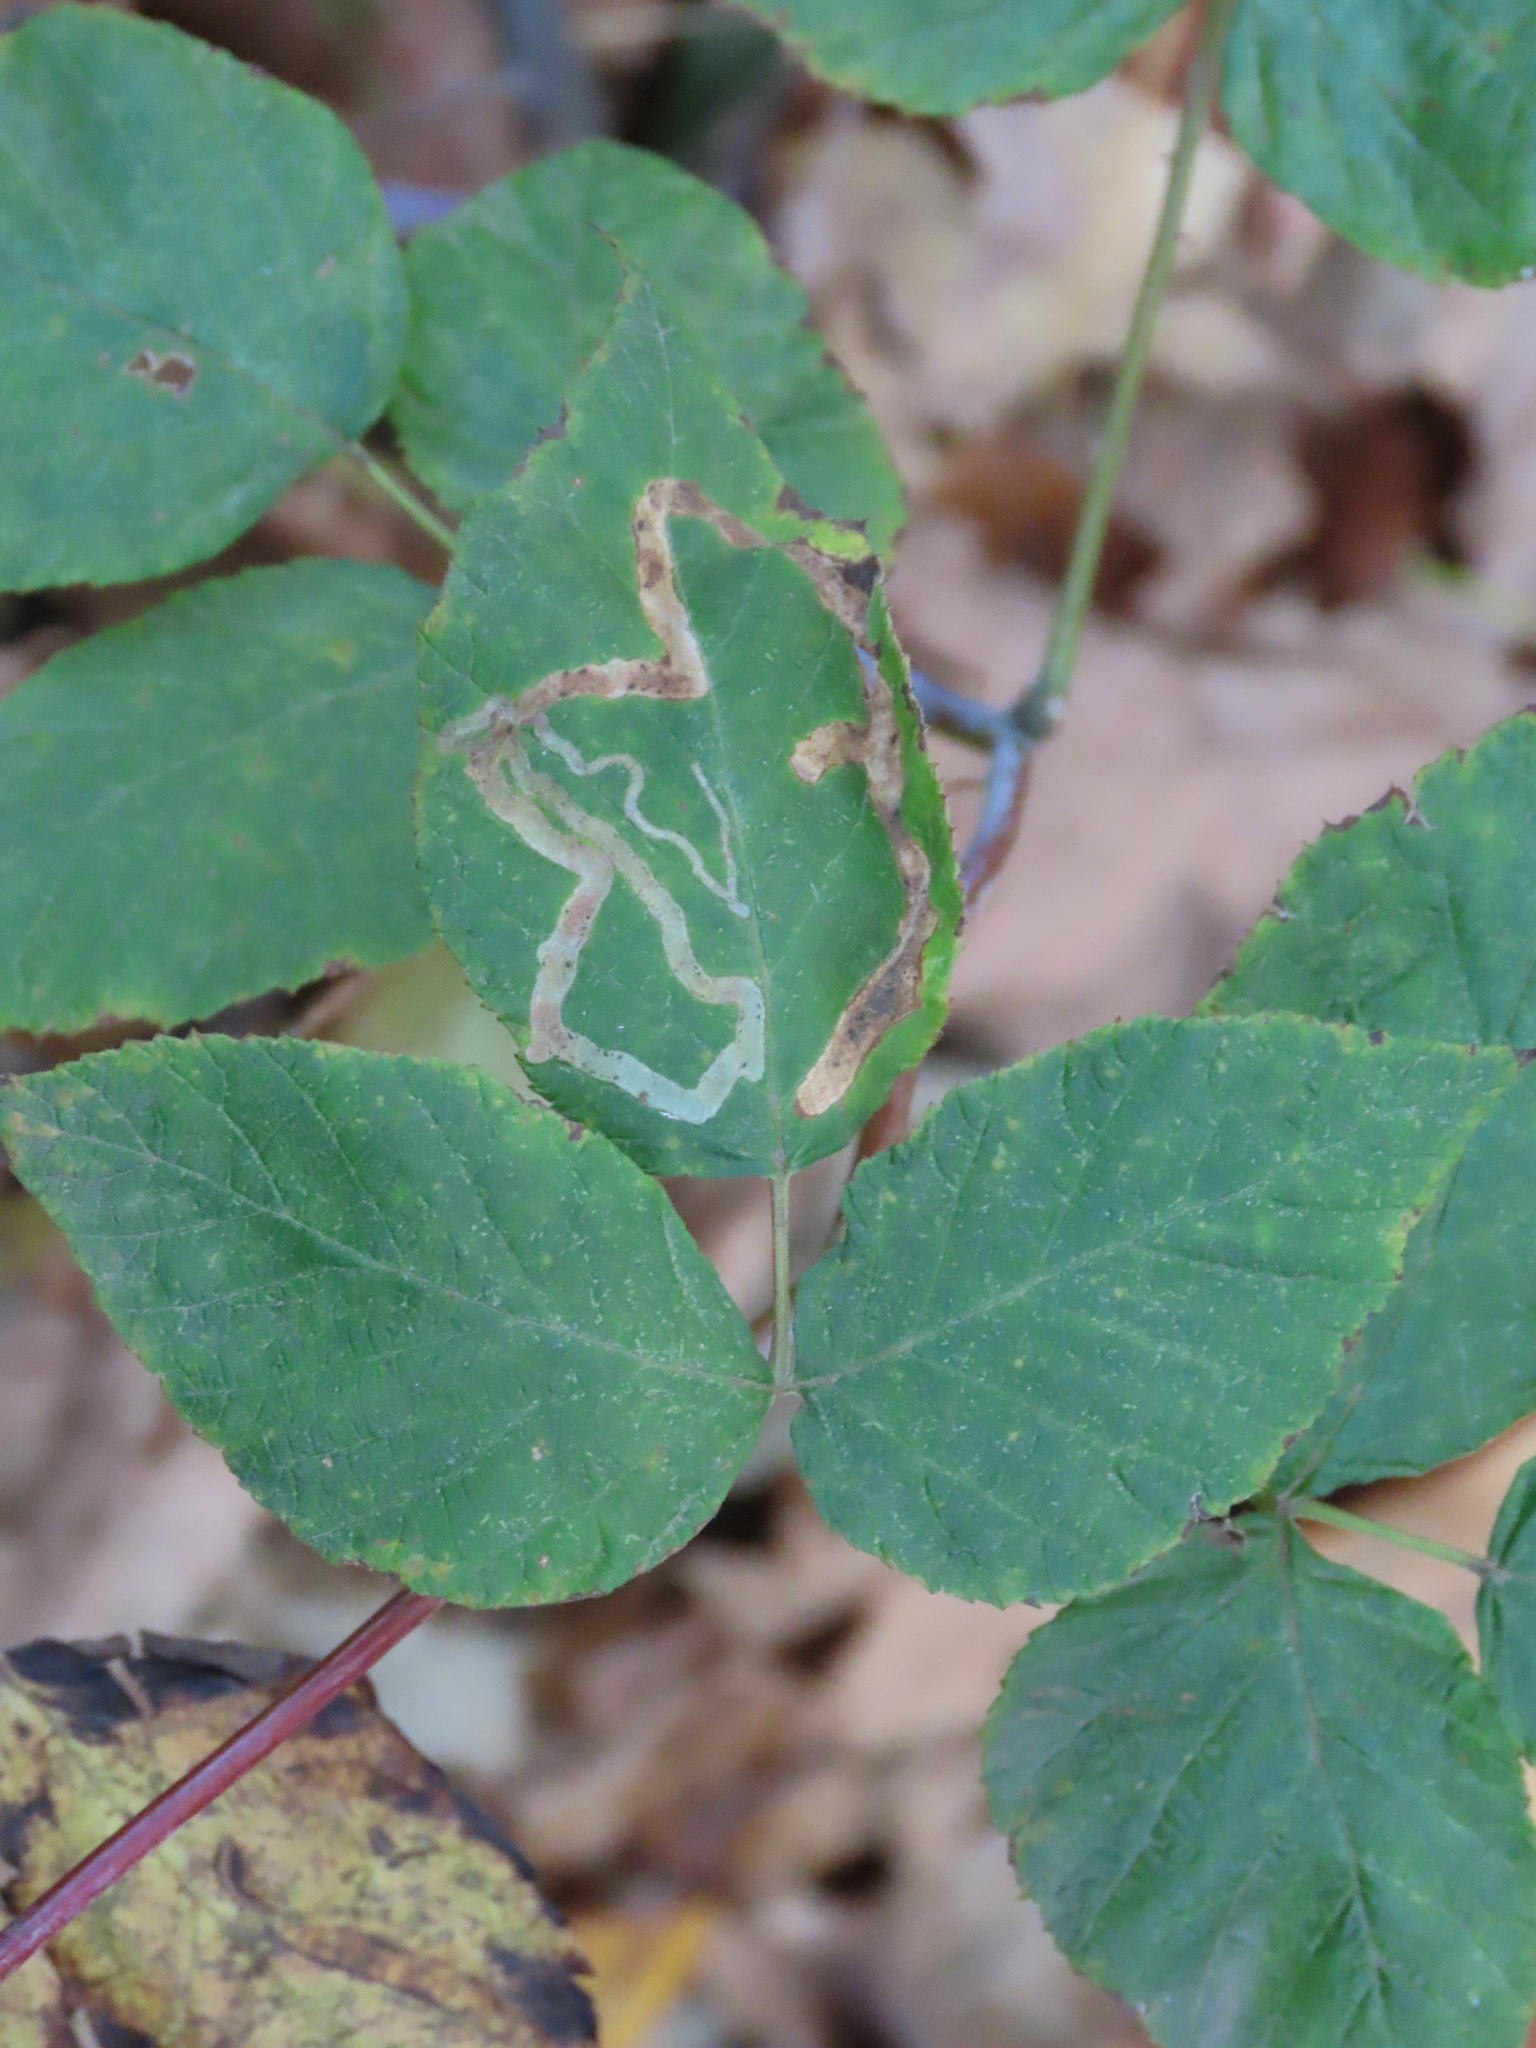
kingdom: Animalia
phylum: Arthropoda
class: Insecta
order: Diptera
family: Agromyzidae
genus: Agromyza
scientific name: Agromyza vockerothi
